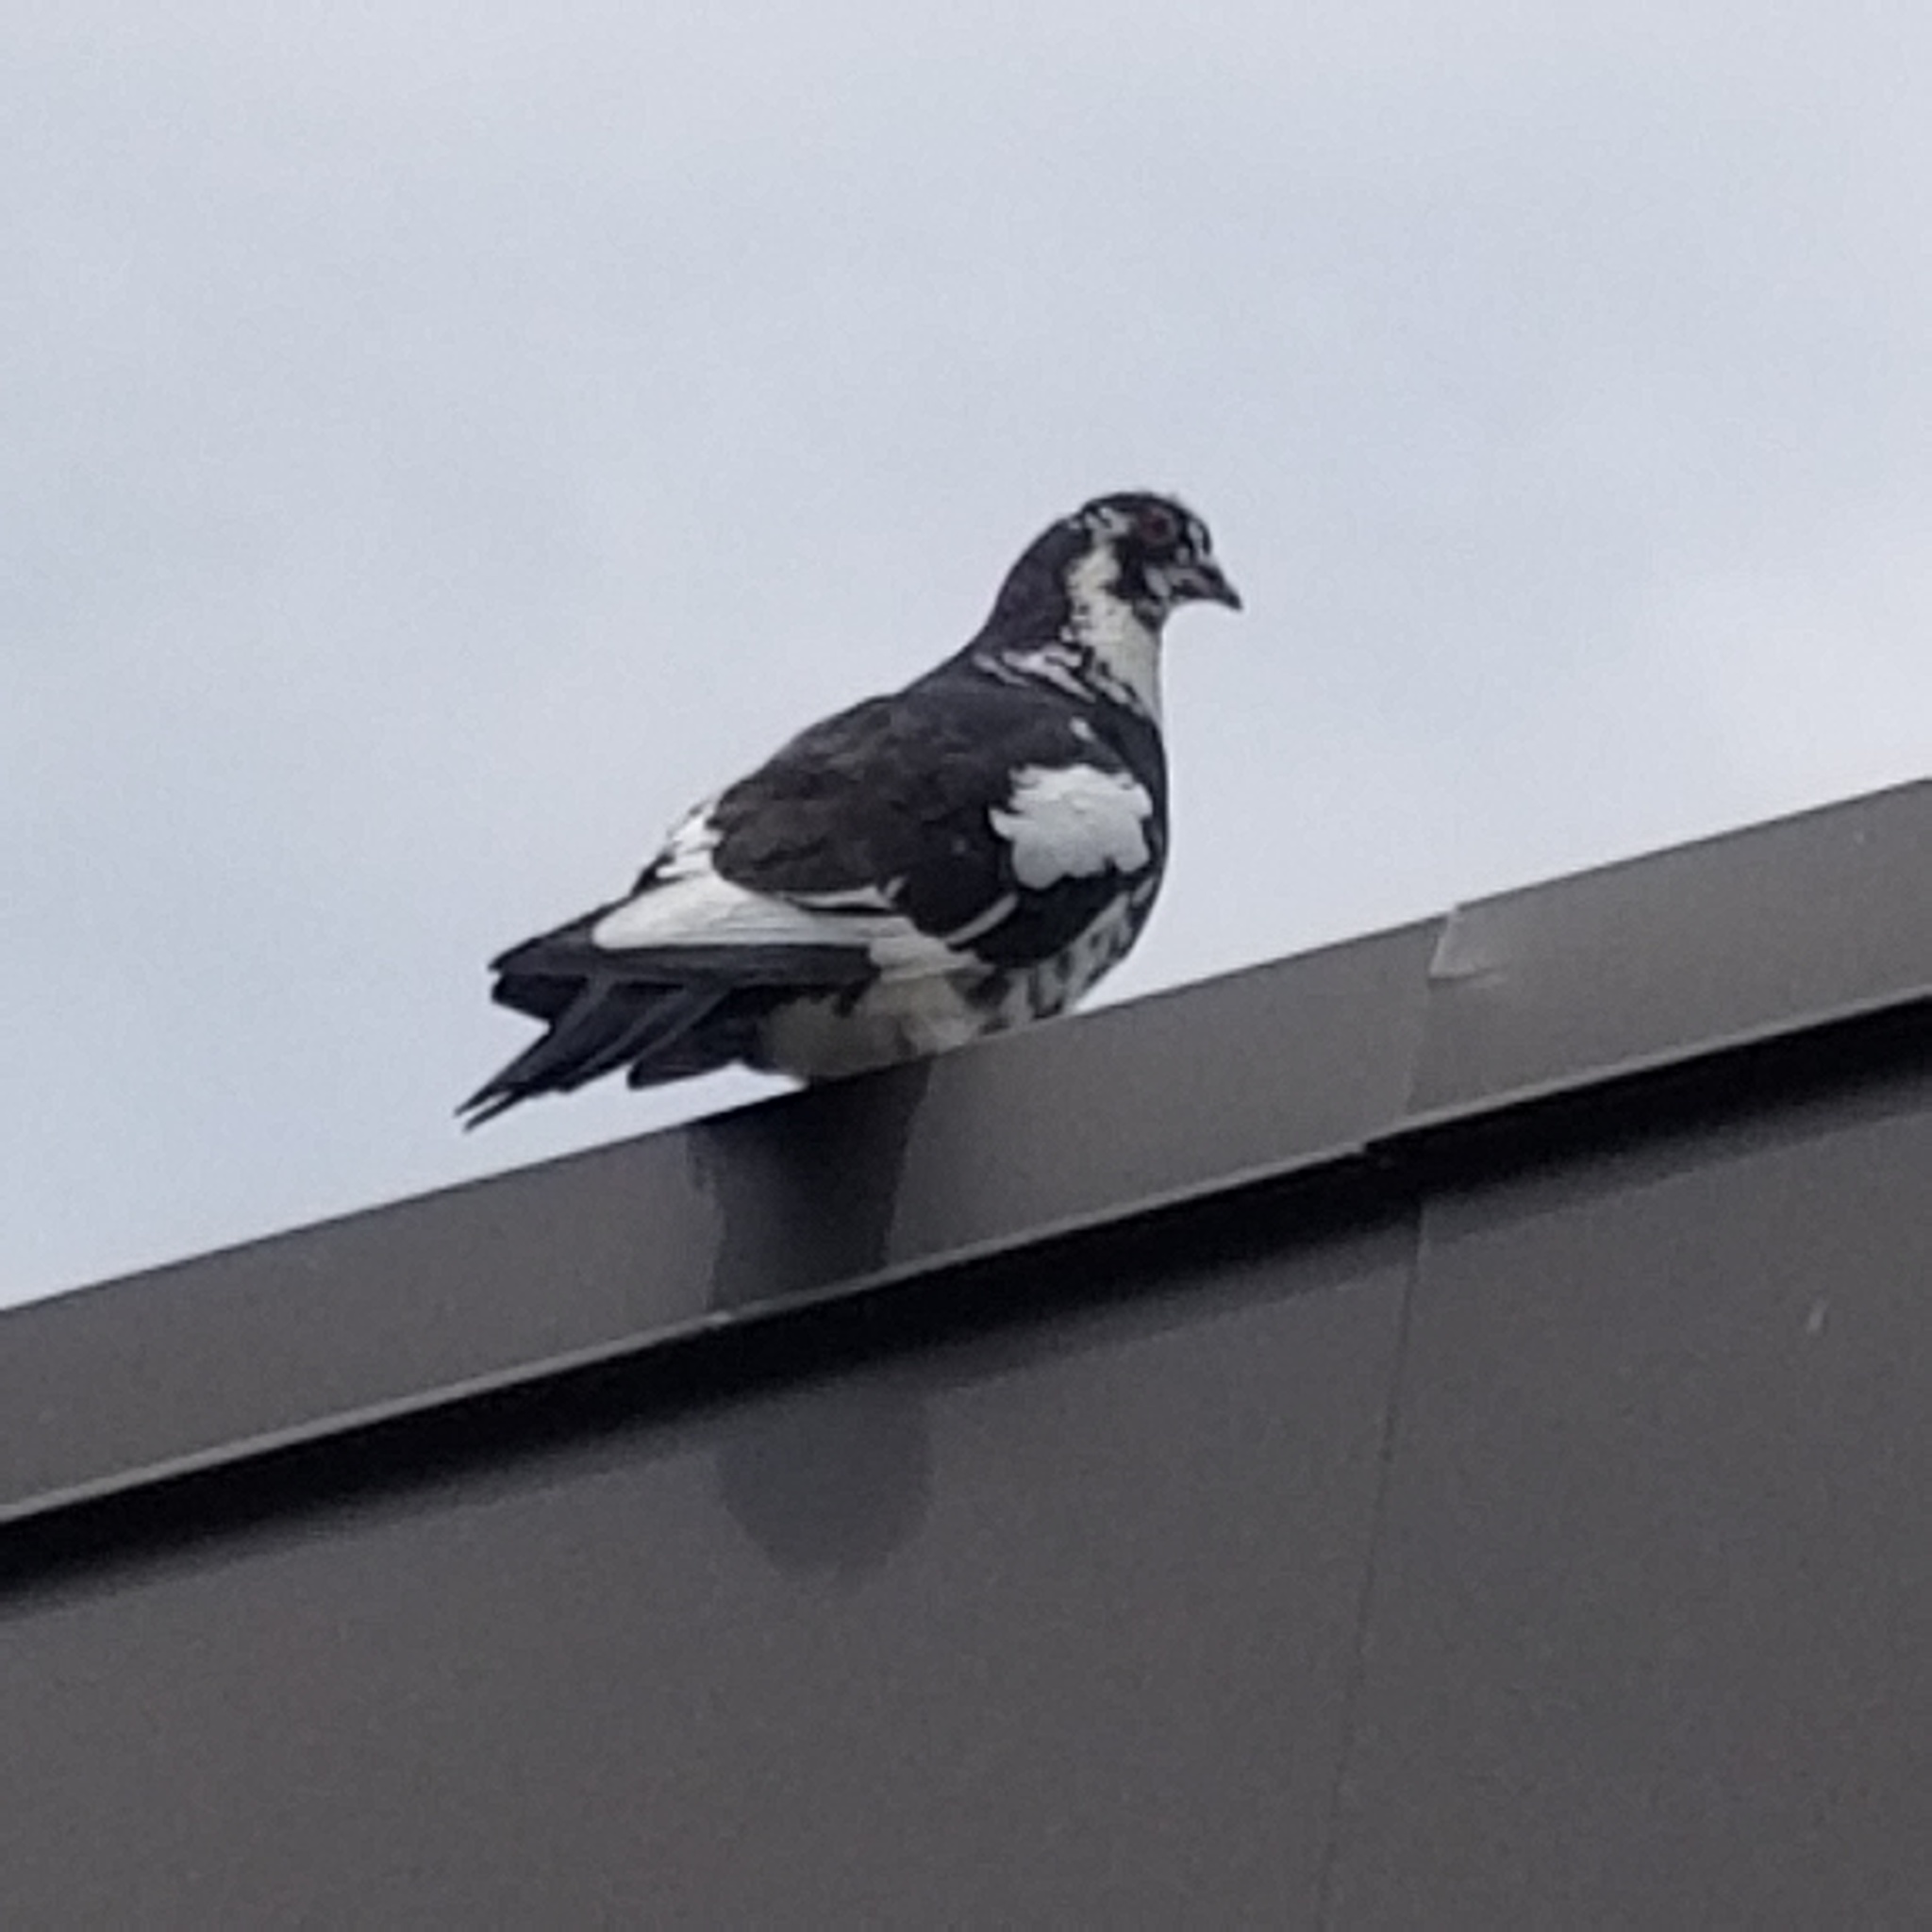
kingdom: Animalia
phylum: Chordata
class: Aves
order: Columbiformes
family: Columbidae
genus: Columba
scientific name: Columba livia
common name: Rock pigeon
